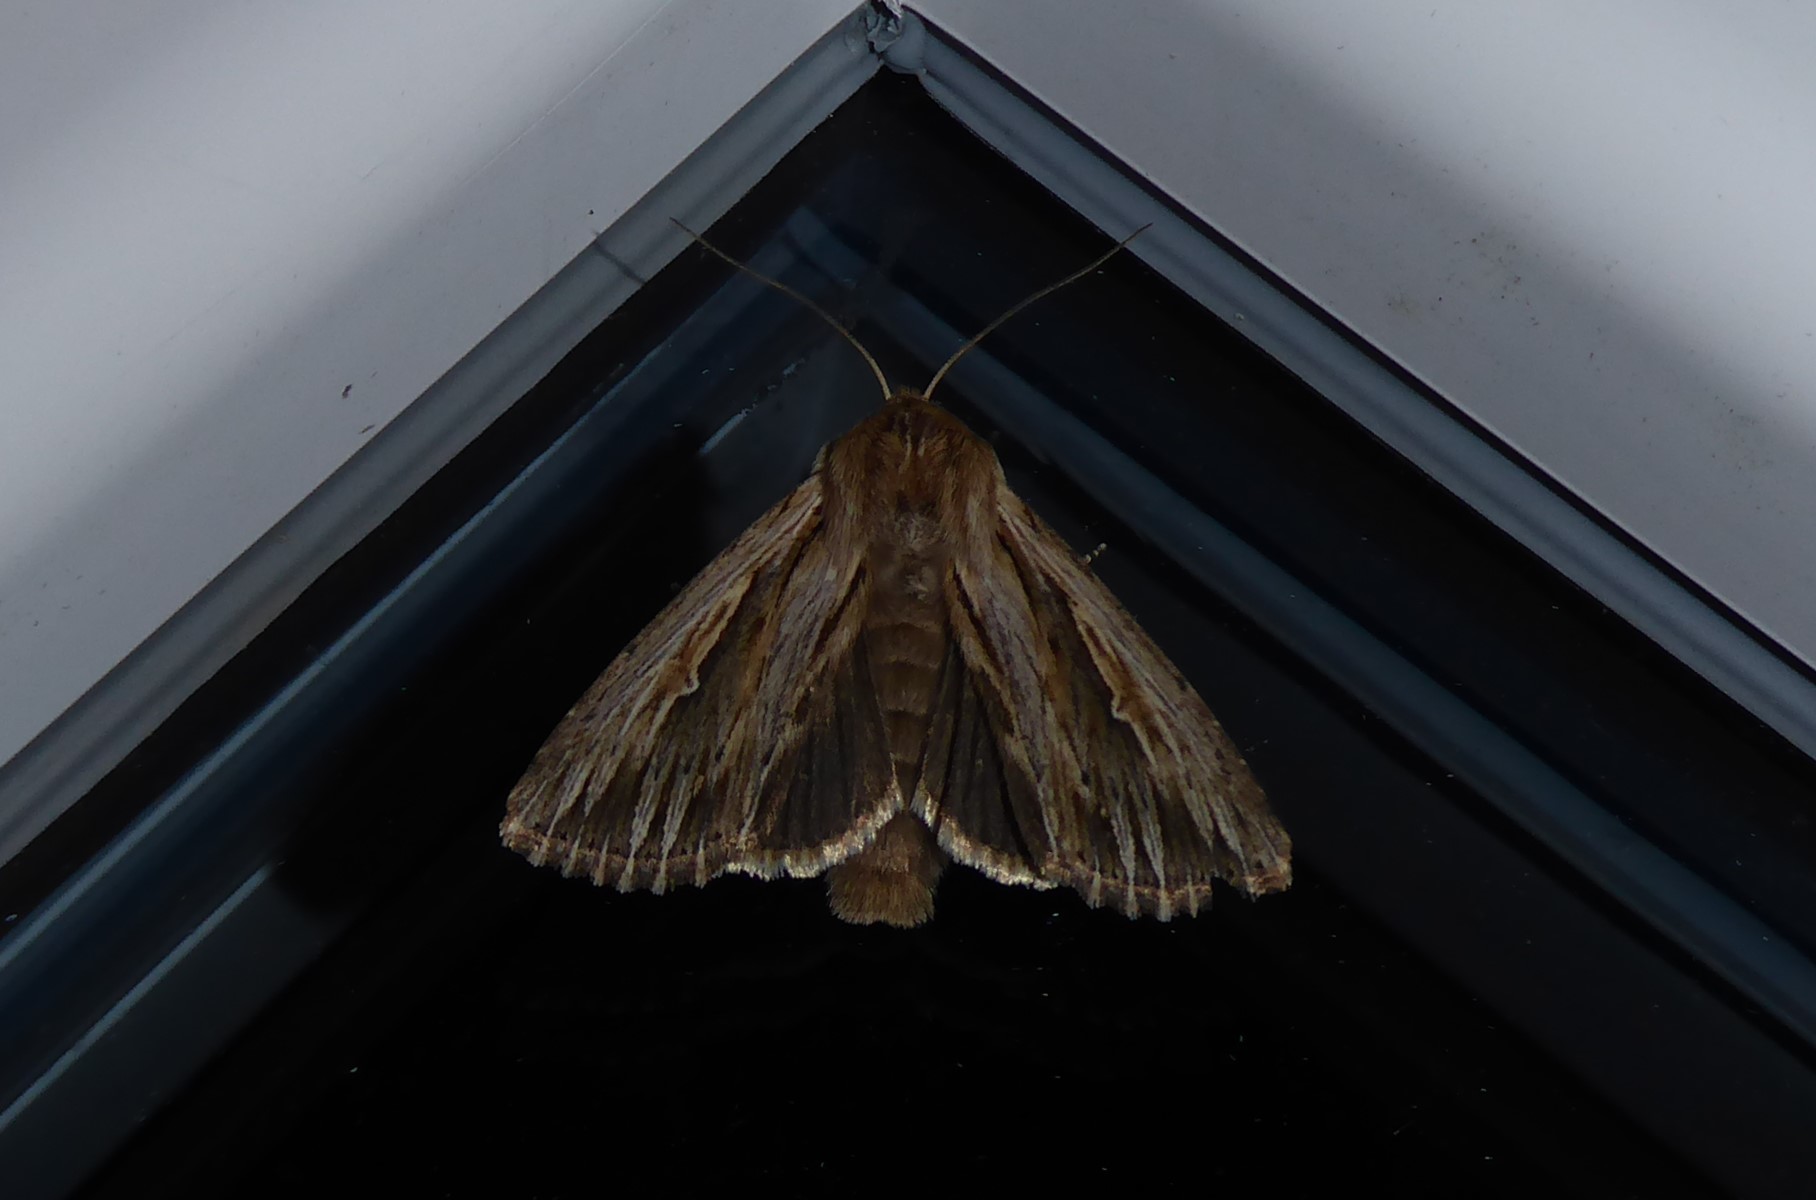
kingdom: Animalia
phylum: Arthropoda
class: Insecta
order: Lepidoptera
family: Noctuidae
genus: Persectania
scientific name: Persectania aversa
